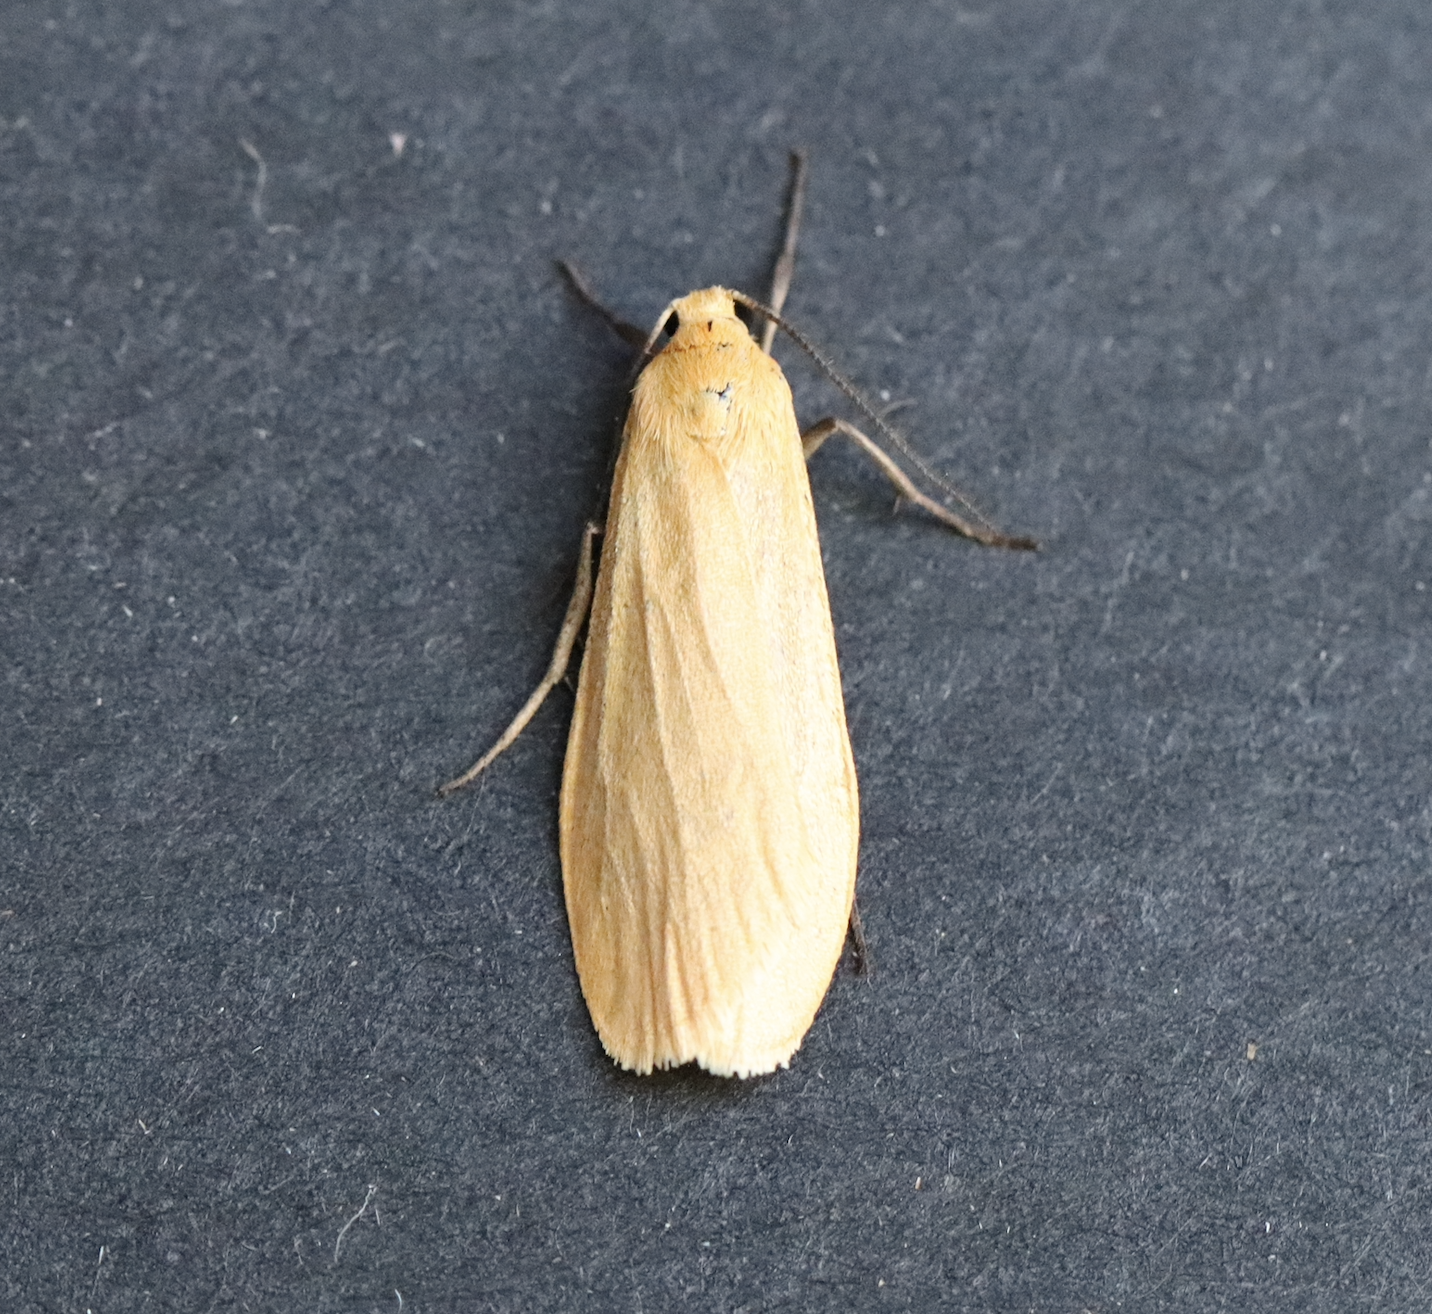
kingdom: Animalia
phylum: Arthropoda
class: Insecta
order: Lepidoptera
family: Erebidae
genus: Wittia
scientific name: Wittia sororcula
